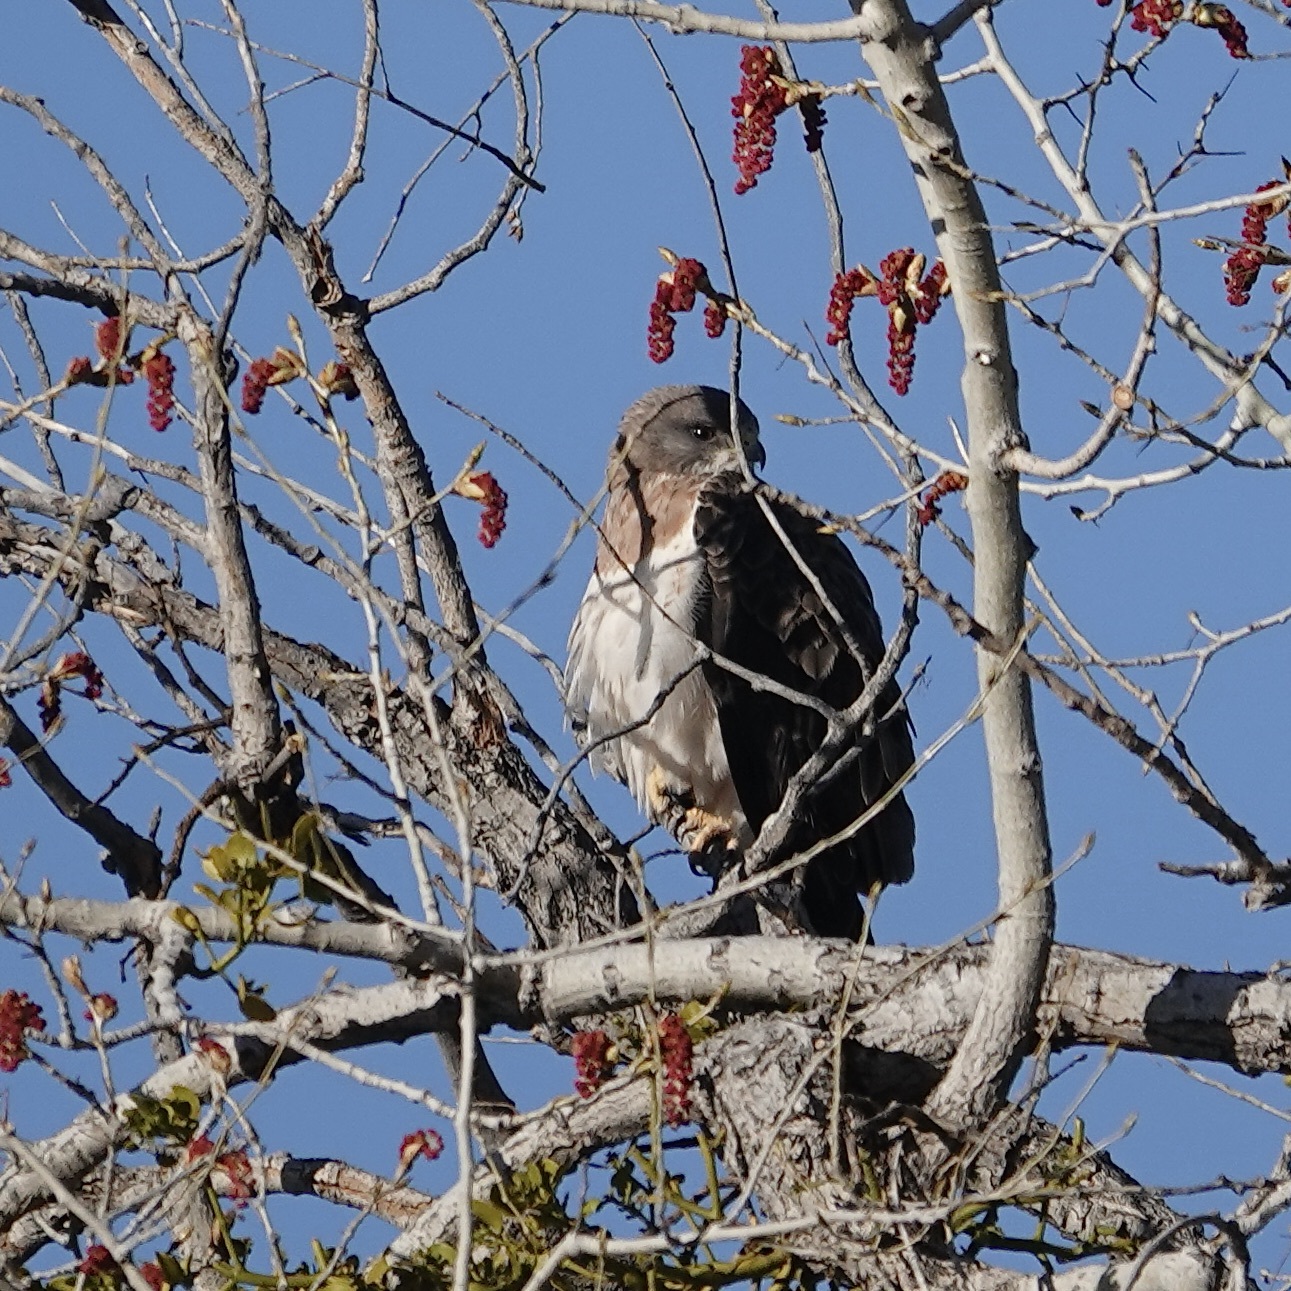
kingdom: Animalia
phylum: Chordata
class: Aves
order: Accipitriformes
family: Accipitridae
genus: Buteo
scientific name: Buteo swainsoni
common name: Swainson's hawk
